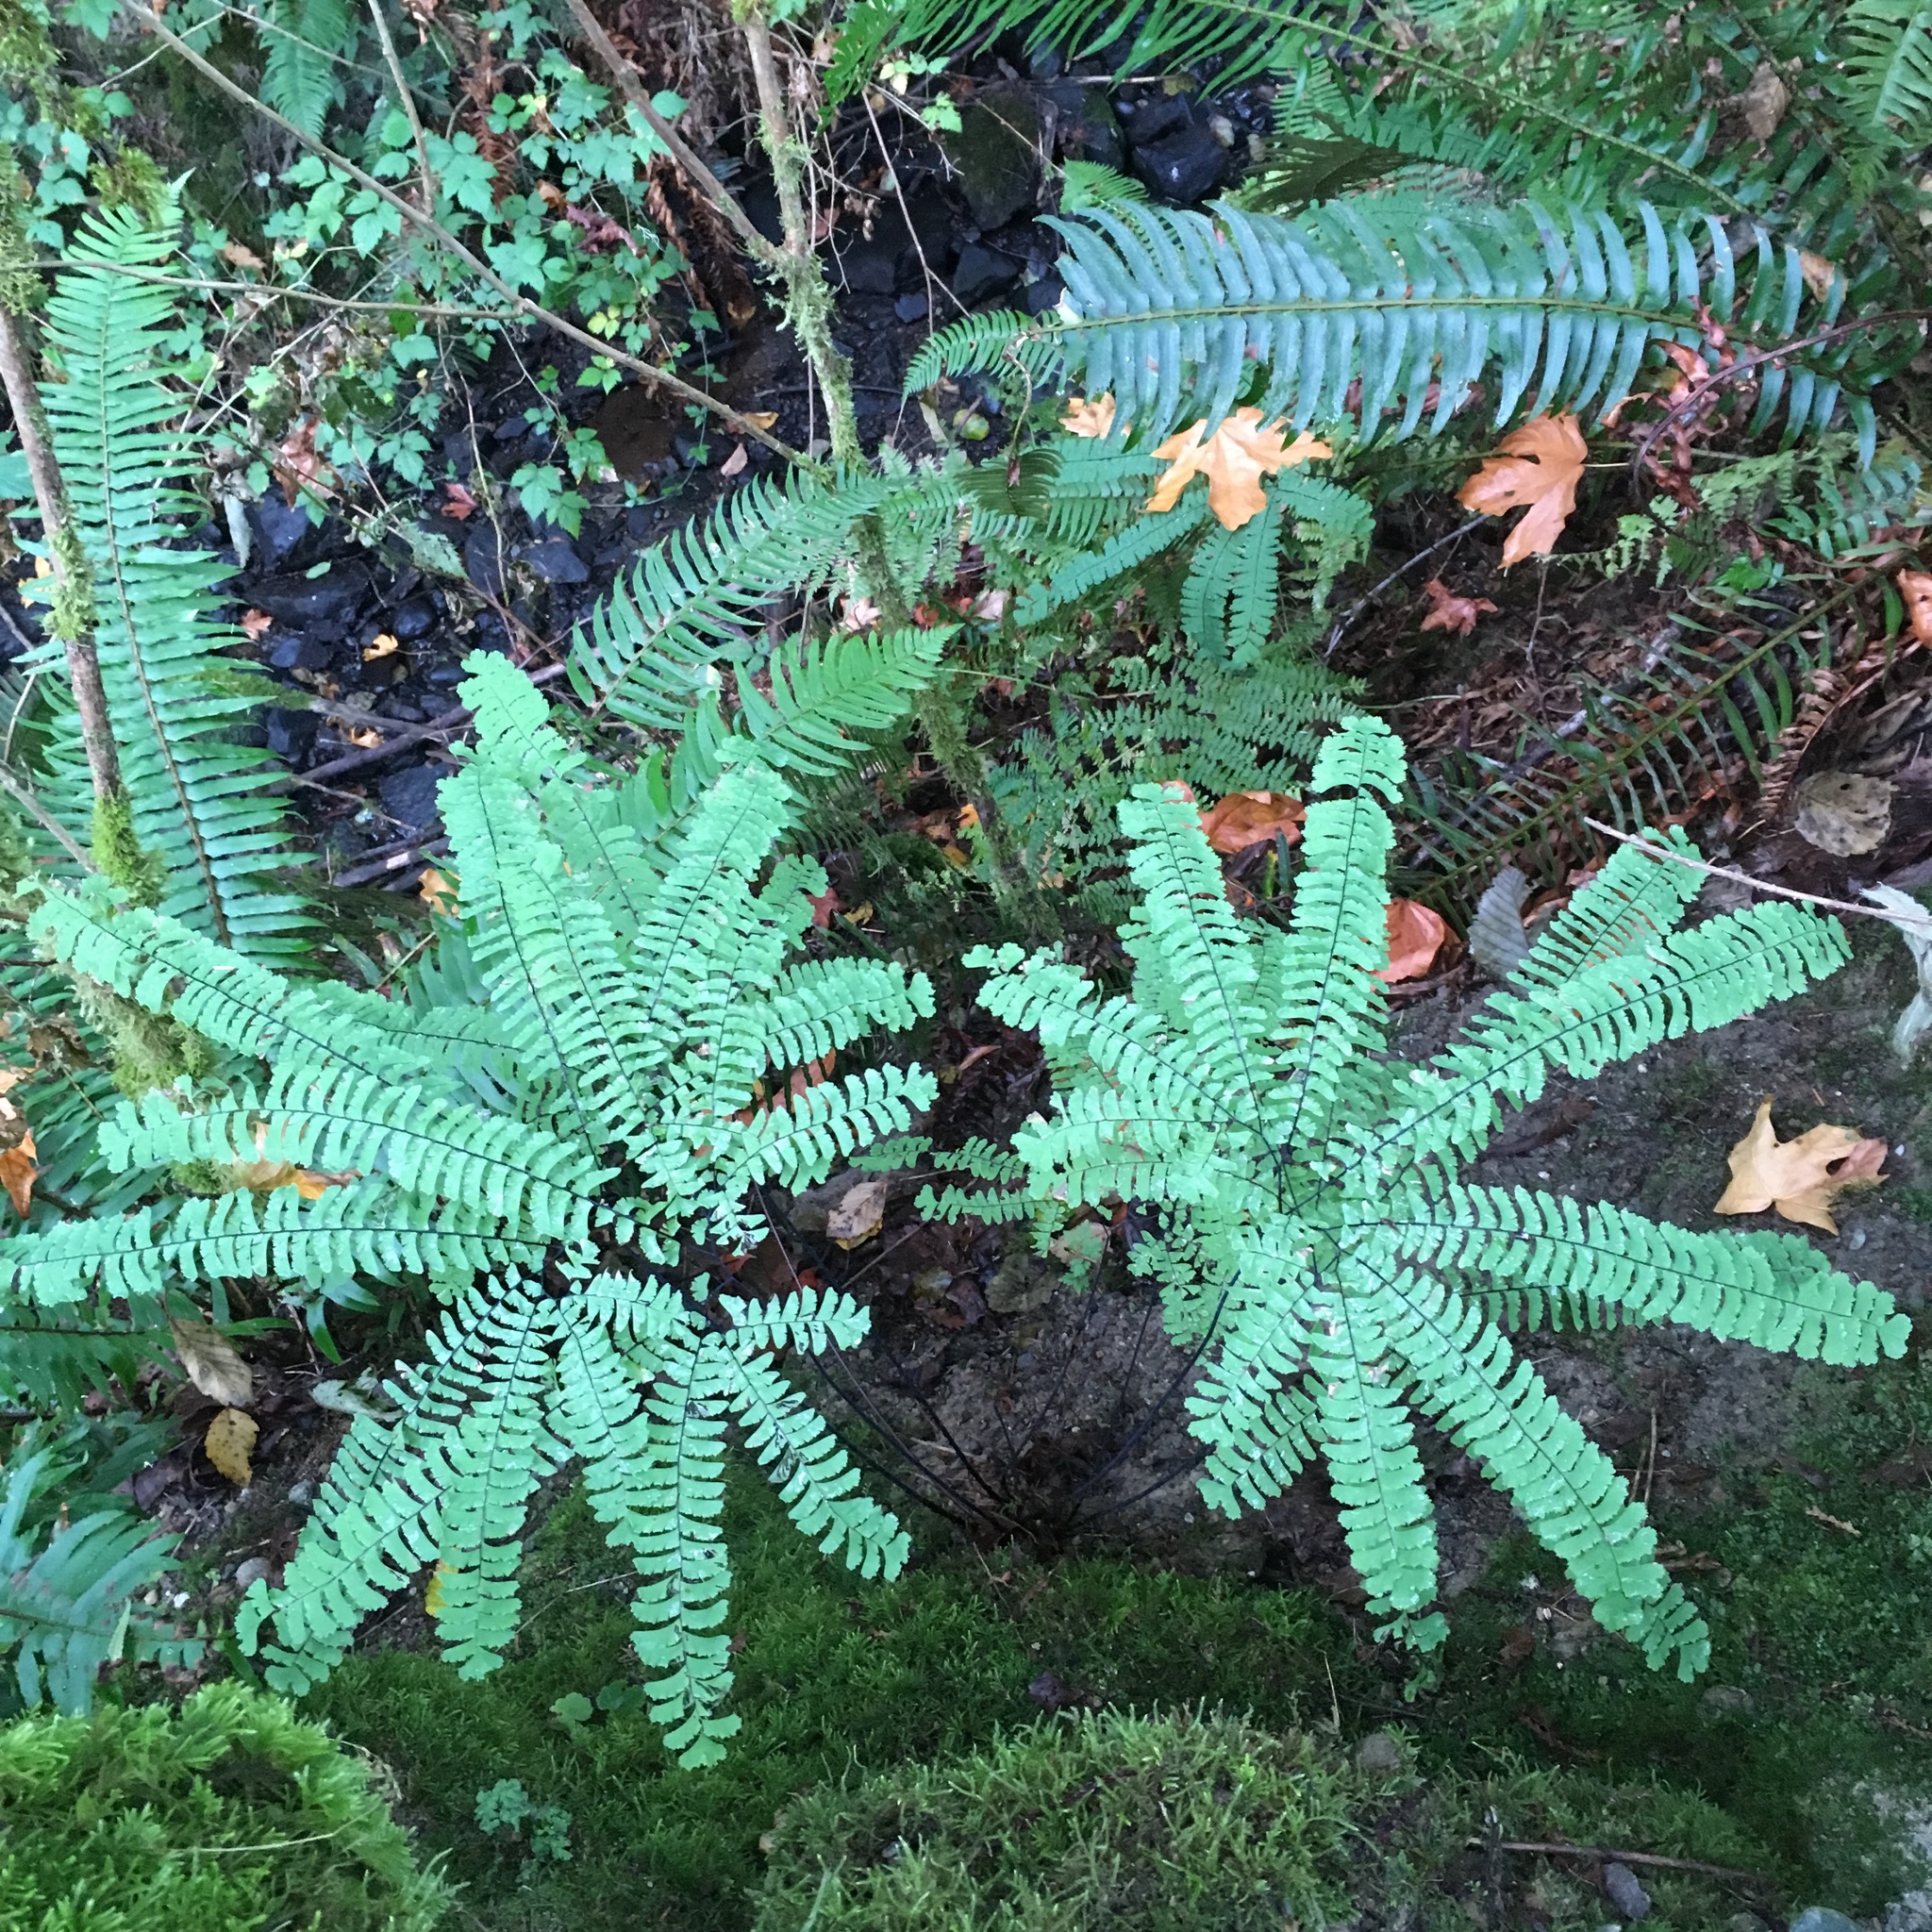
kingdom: Plantae
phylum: Tracheophyta
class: Polypodiopsida
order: Polypodiales
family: Pteridaceae
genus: Adiantum
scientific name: Adiantum aleuticum
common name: Aleutian maidenhair fern
